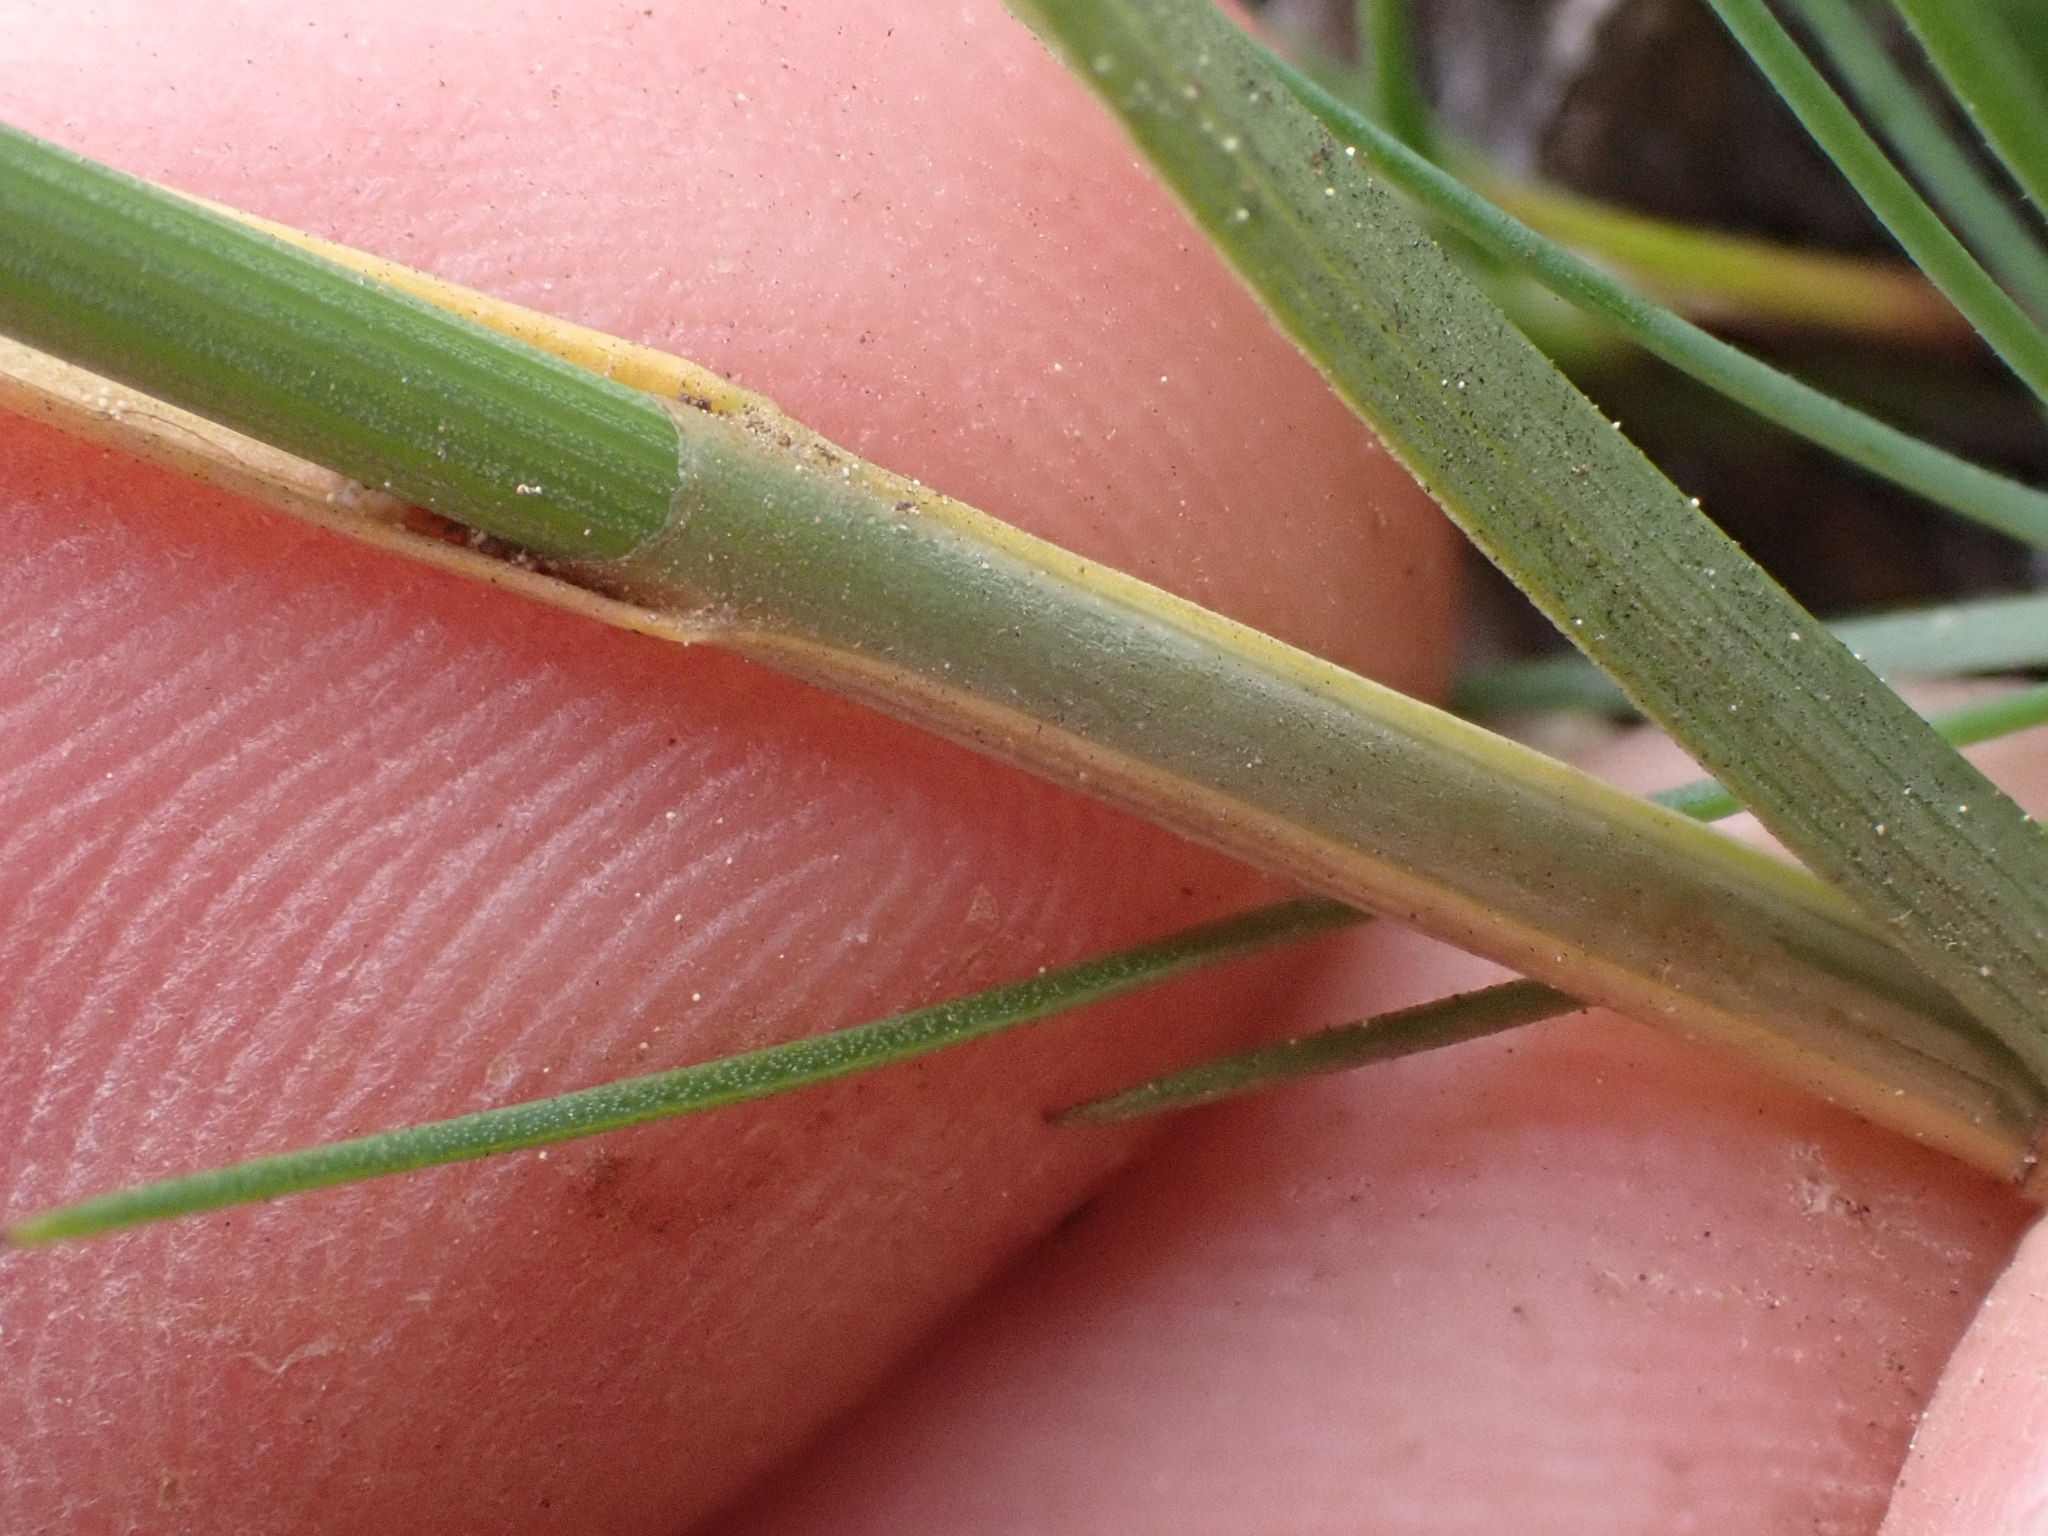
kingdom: Plantae
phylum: Tracheophyta
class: Liliopsida
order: Poales
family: Cyperaceae
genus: Carex
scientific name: Carex petasata
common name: Liddon's sedge
